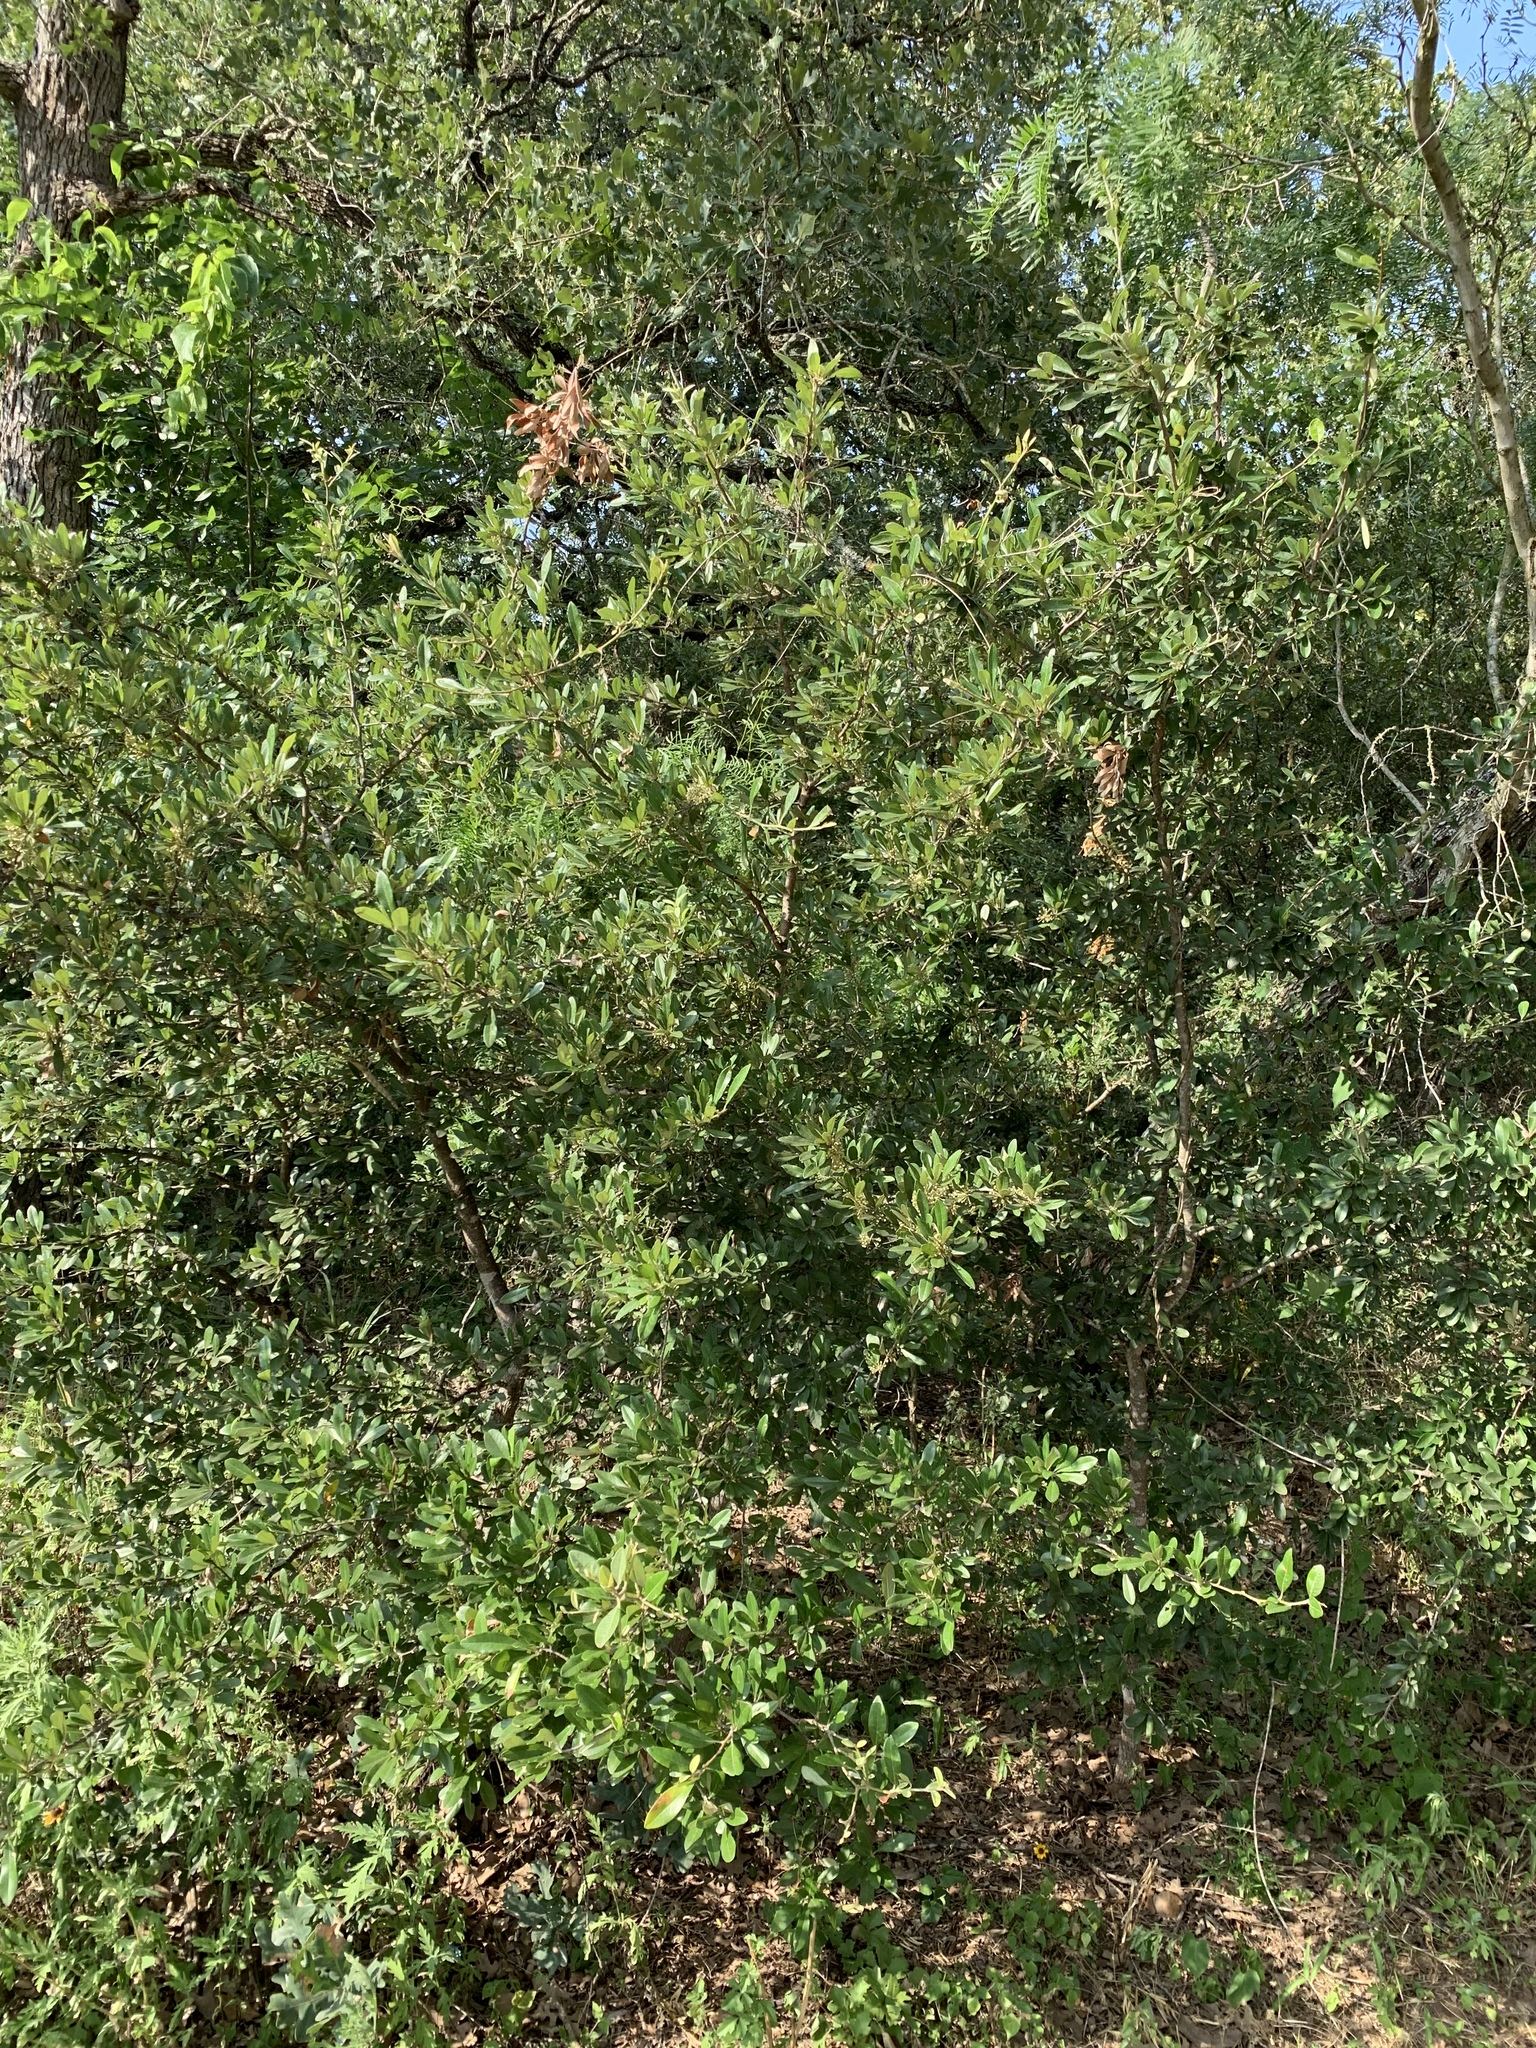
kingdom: Plantae
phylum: Tracheophyta
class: Magnoliopsida
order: Ericales
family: Sapotaceae
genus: Sideroxylon
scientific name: Sideroxylon lanuginosum
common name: Chittamwood
